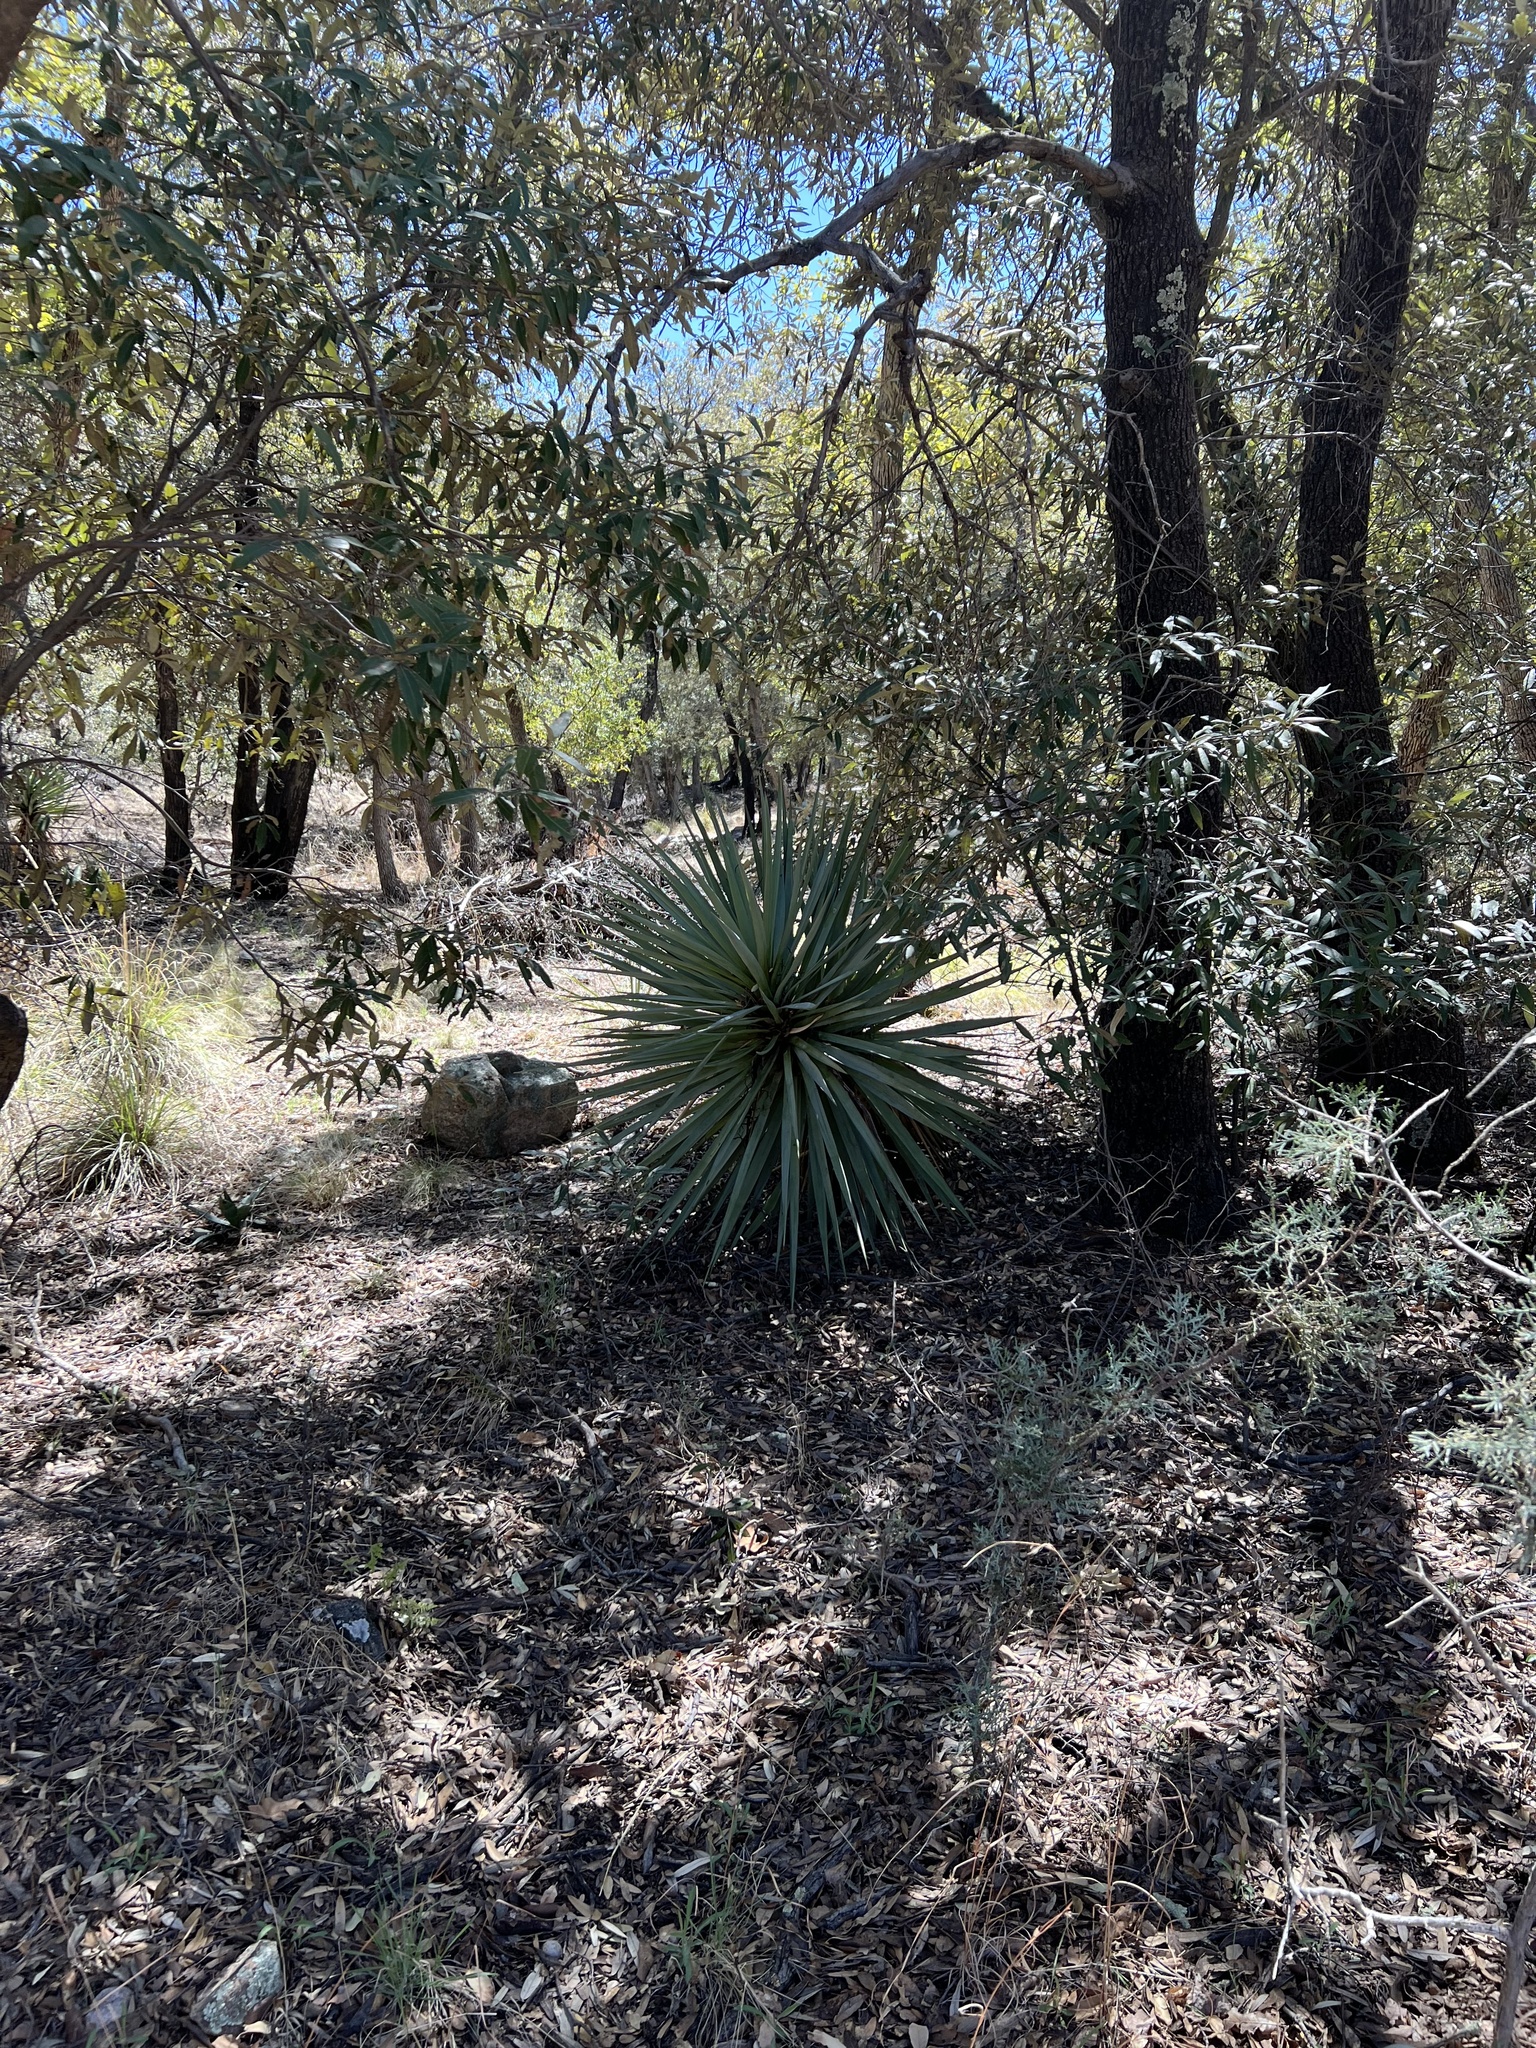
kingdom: Plantae
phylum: Tracheophyta
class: Liliopsida
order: Asparagales
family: Asparagaceae
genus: Yucca
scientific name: Yucca schottii
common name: Hoary yucca
